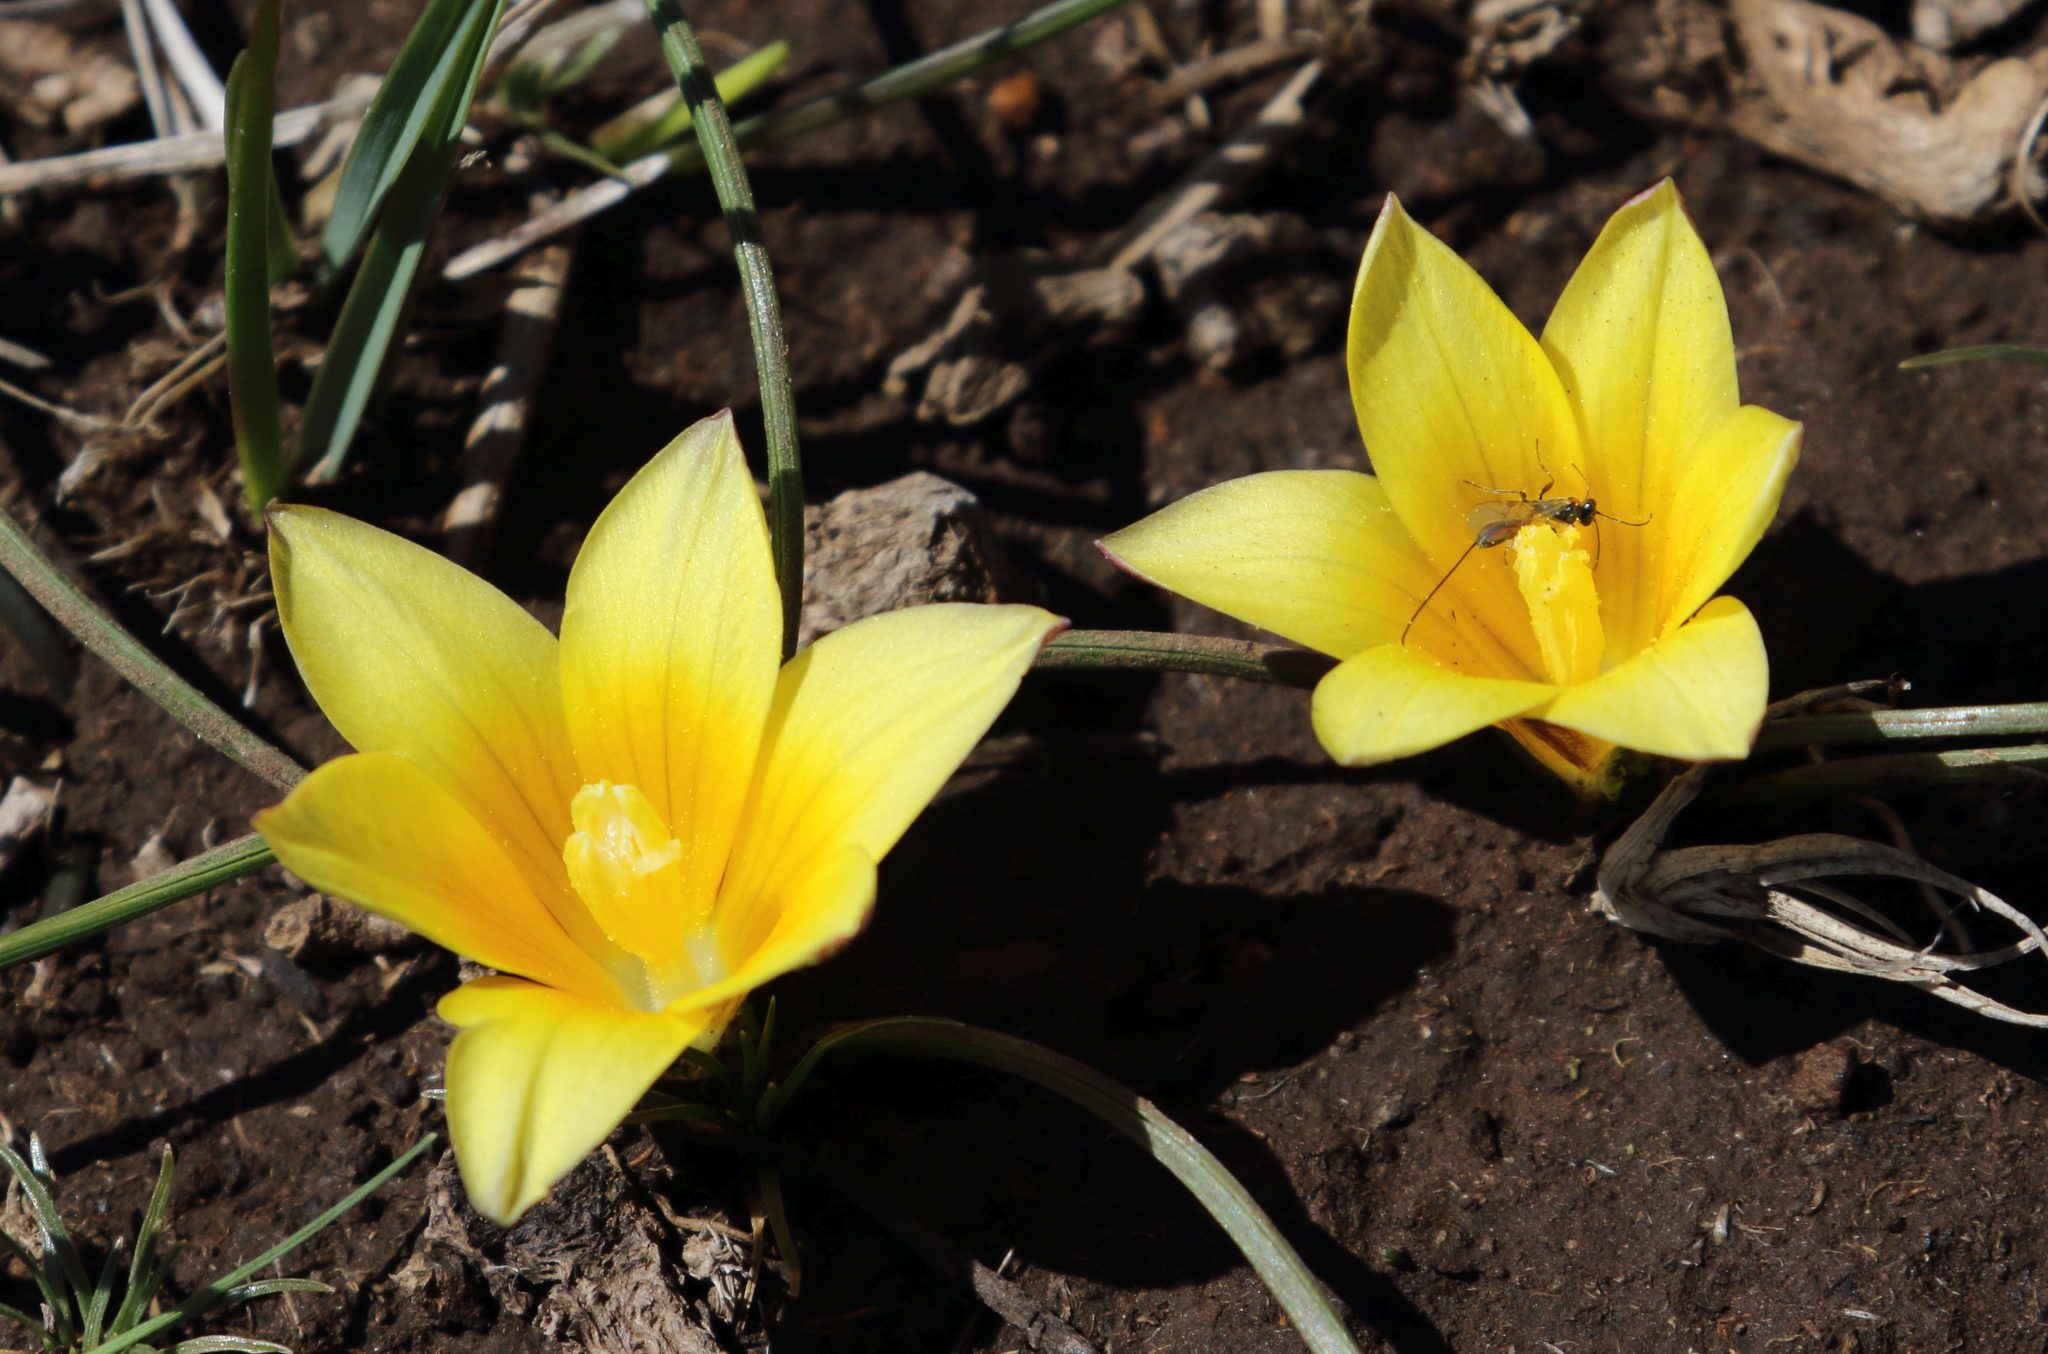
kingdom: Plantae
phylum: Tracheophyta
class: Liliopsida
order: Asparagales
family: Iridaceae
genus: Romulea
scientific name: Romulea macowanii
